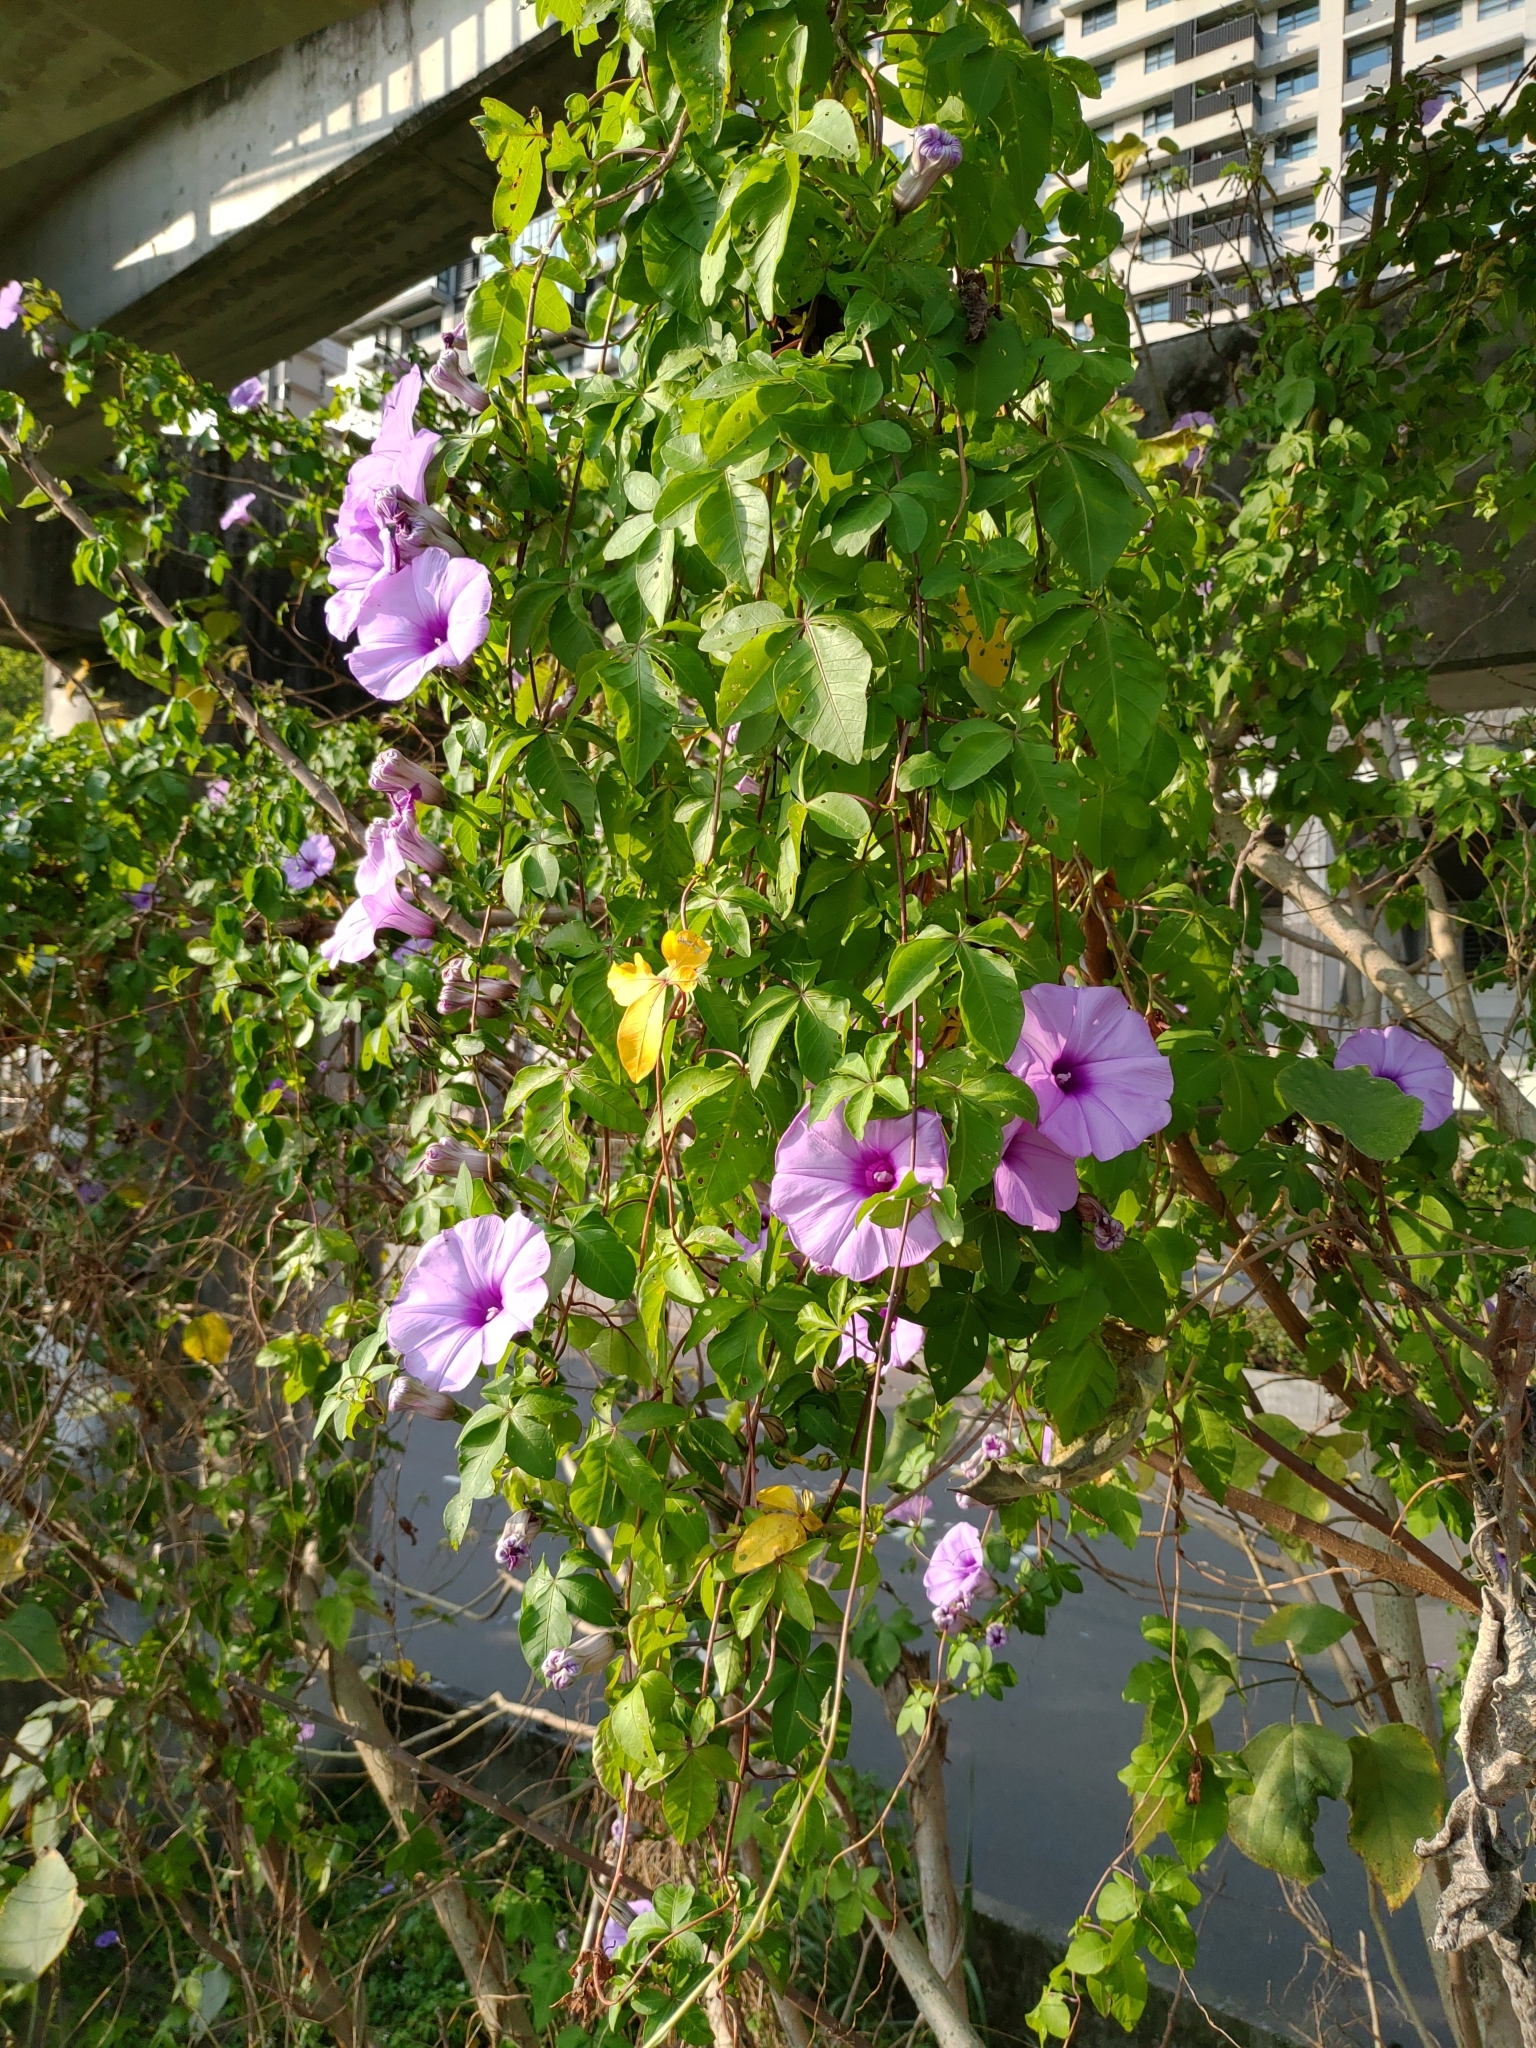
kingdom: Plantae
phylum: Tracheophyta
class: Magnoliopsida
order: Solanales
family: Convolvulaceae
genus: Ipomoea
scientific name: Ipomoea cairica
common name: Mile a minute vine
